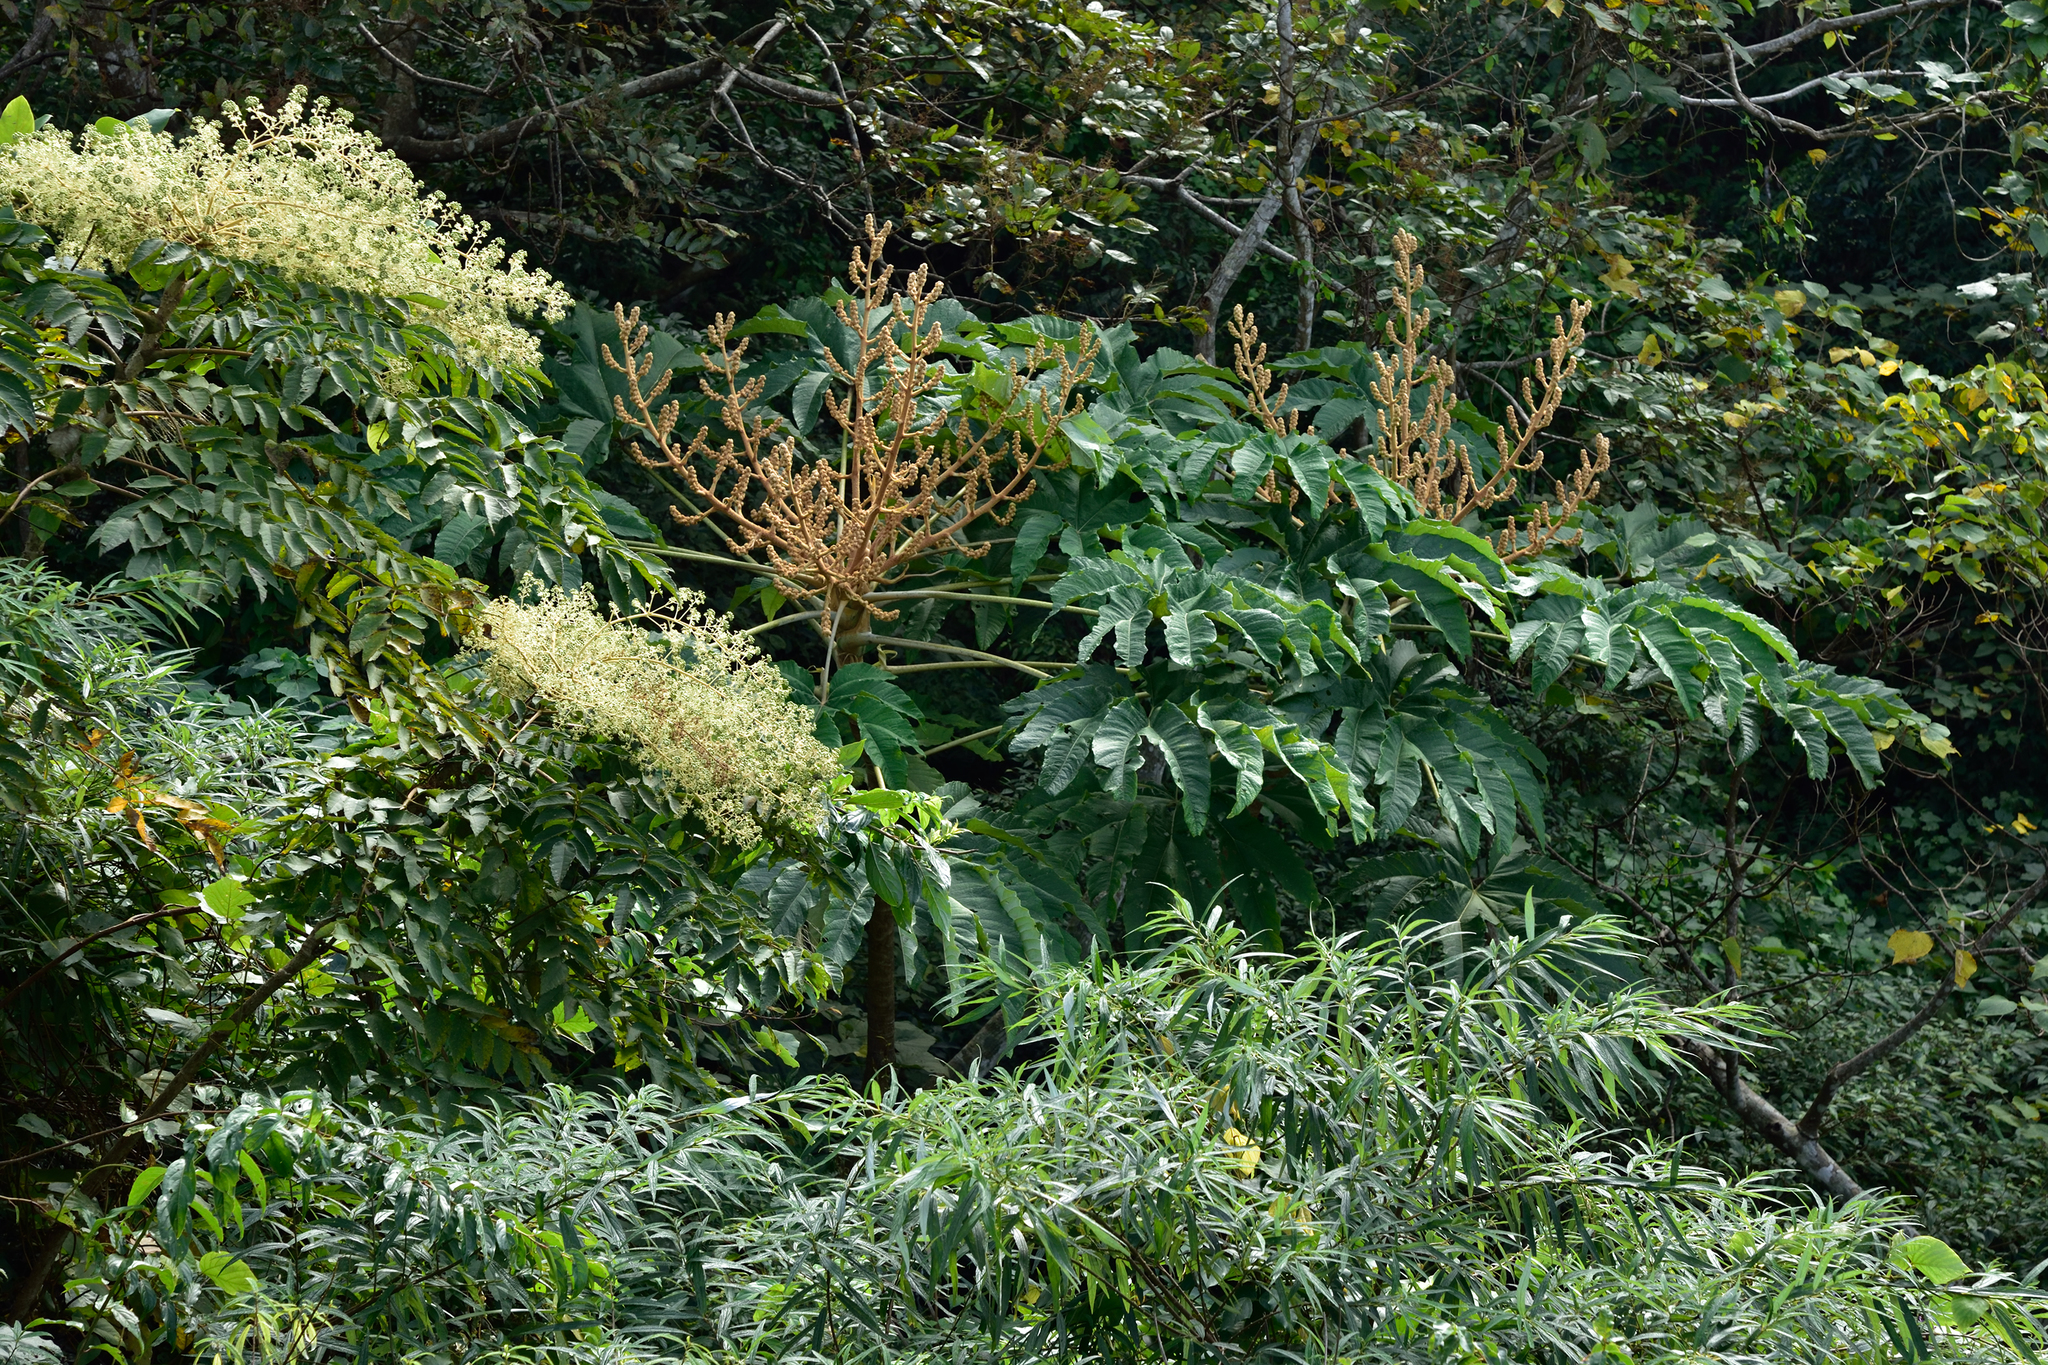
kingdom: Plantae
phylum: Tracheophyta
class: Magnoliopsida
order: Apiales
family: Araliaceae
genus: Tetrapanax
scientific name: Tetrapanax papyrifer
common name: Rice-paper plant
